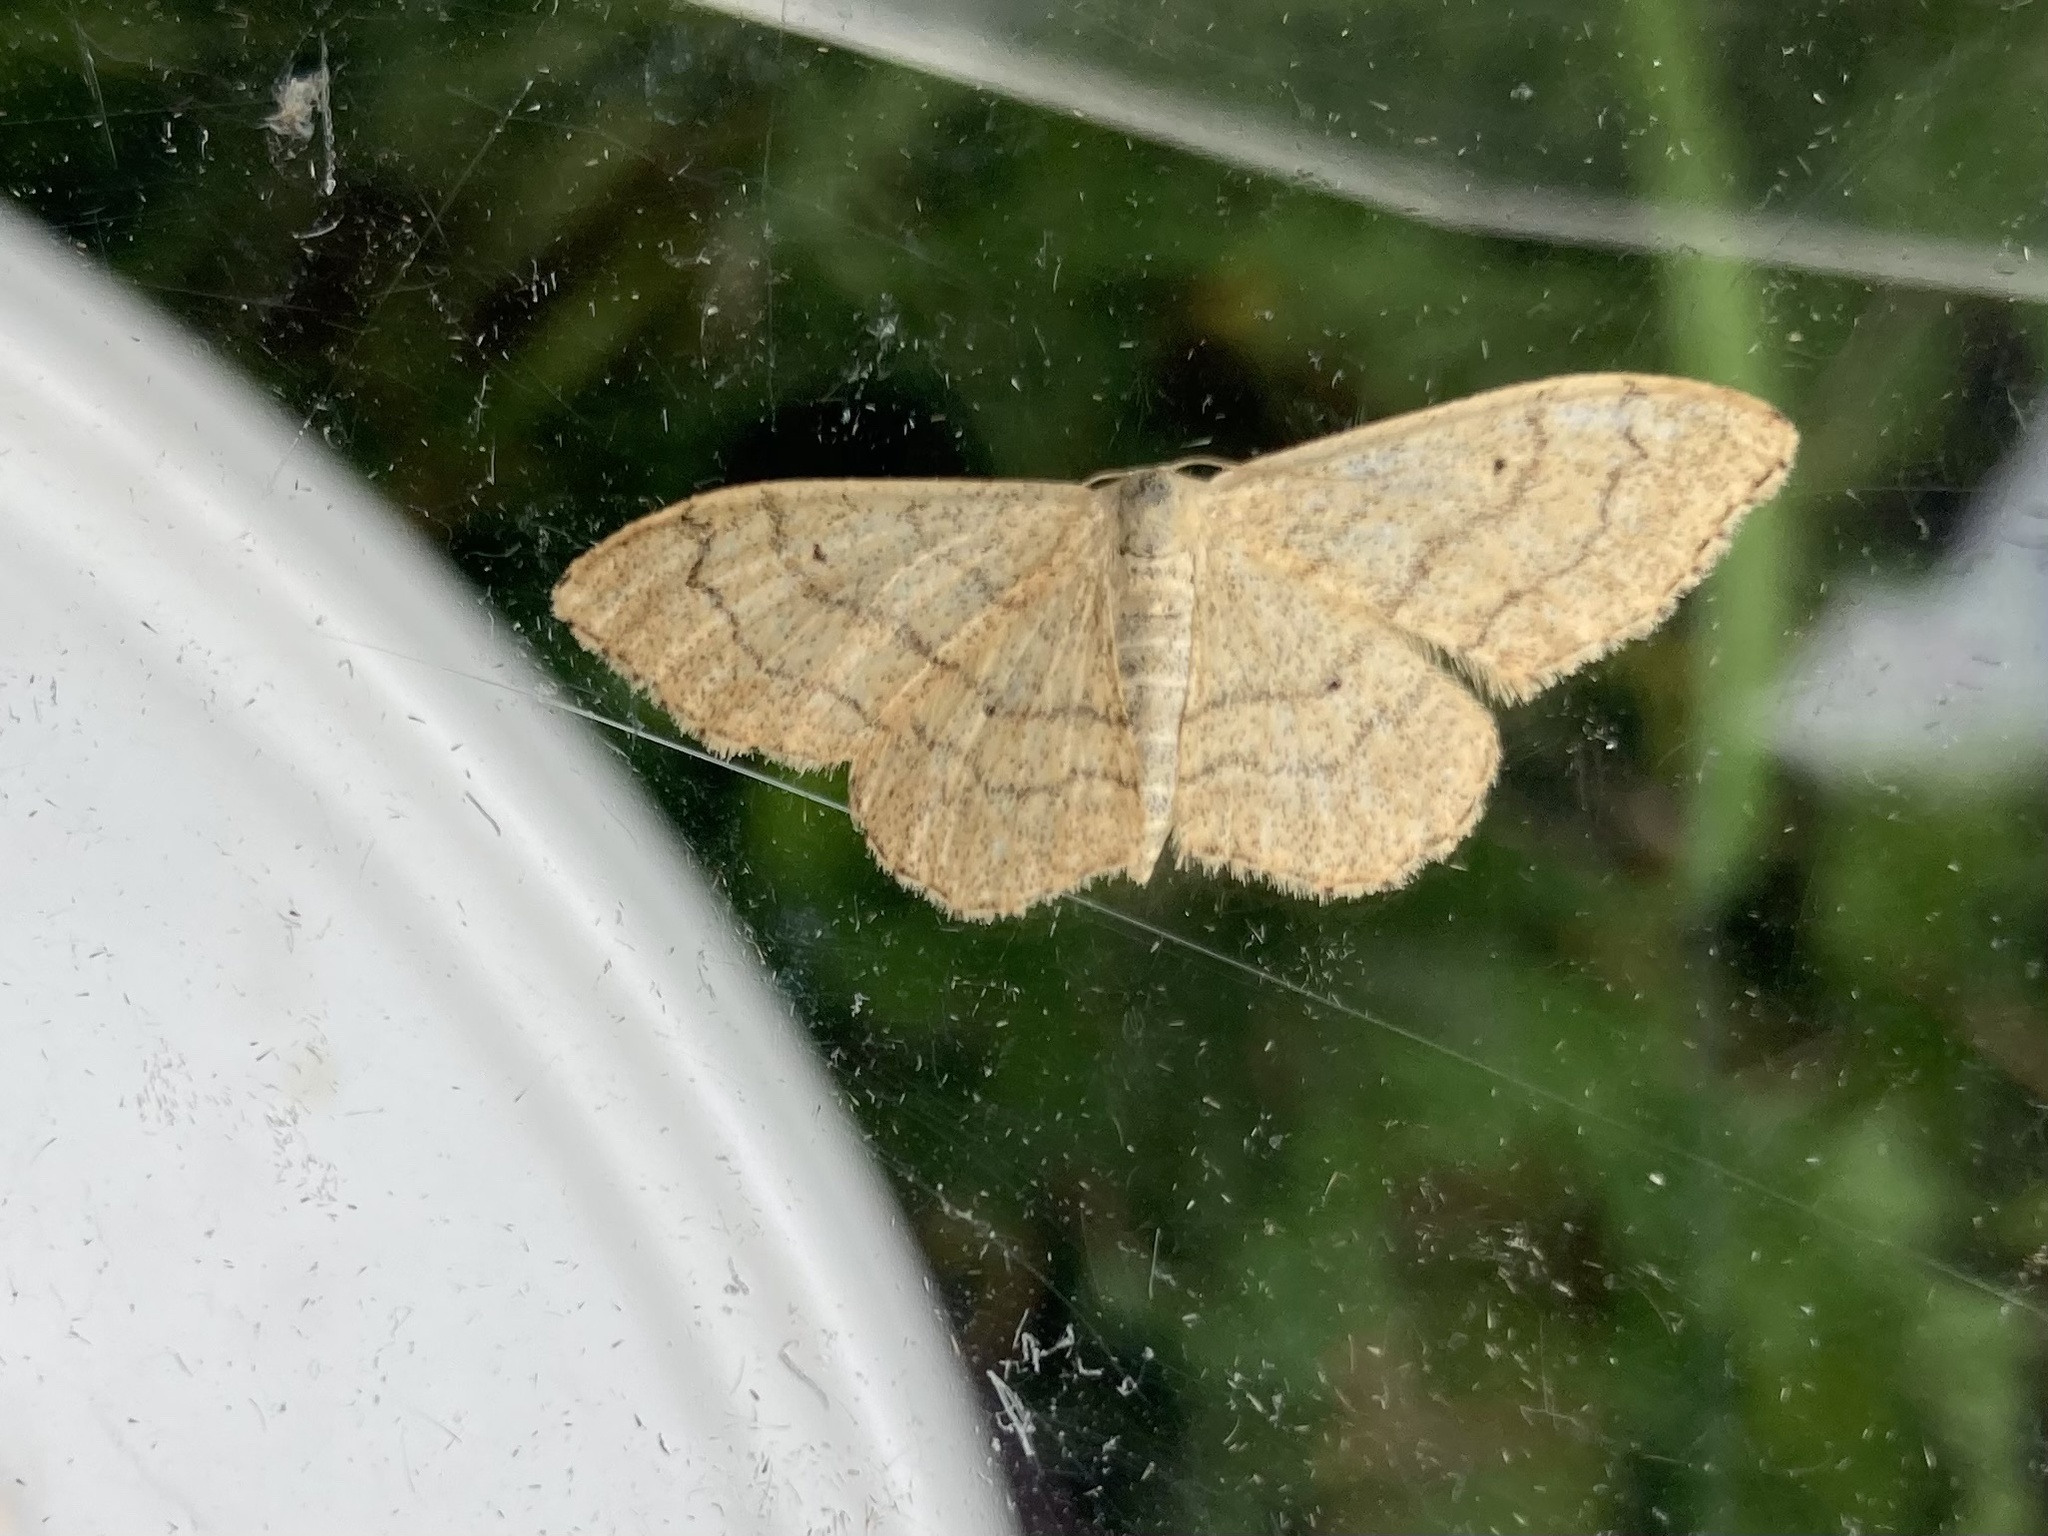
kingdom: Animalia
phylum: Arthropoda
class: Insecta
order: Lepidoptera
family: Geometridae
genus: Idaea
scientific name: Idaea aversata
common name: Riband wave
